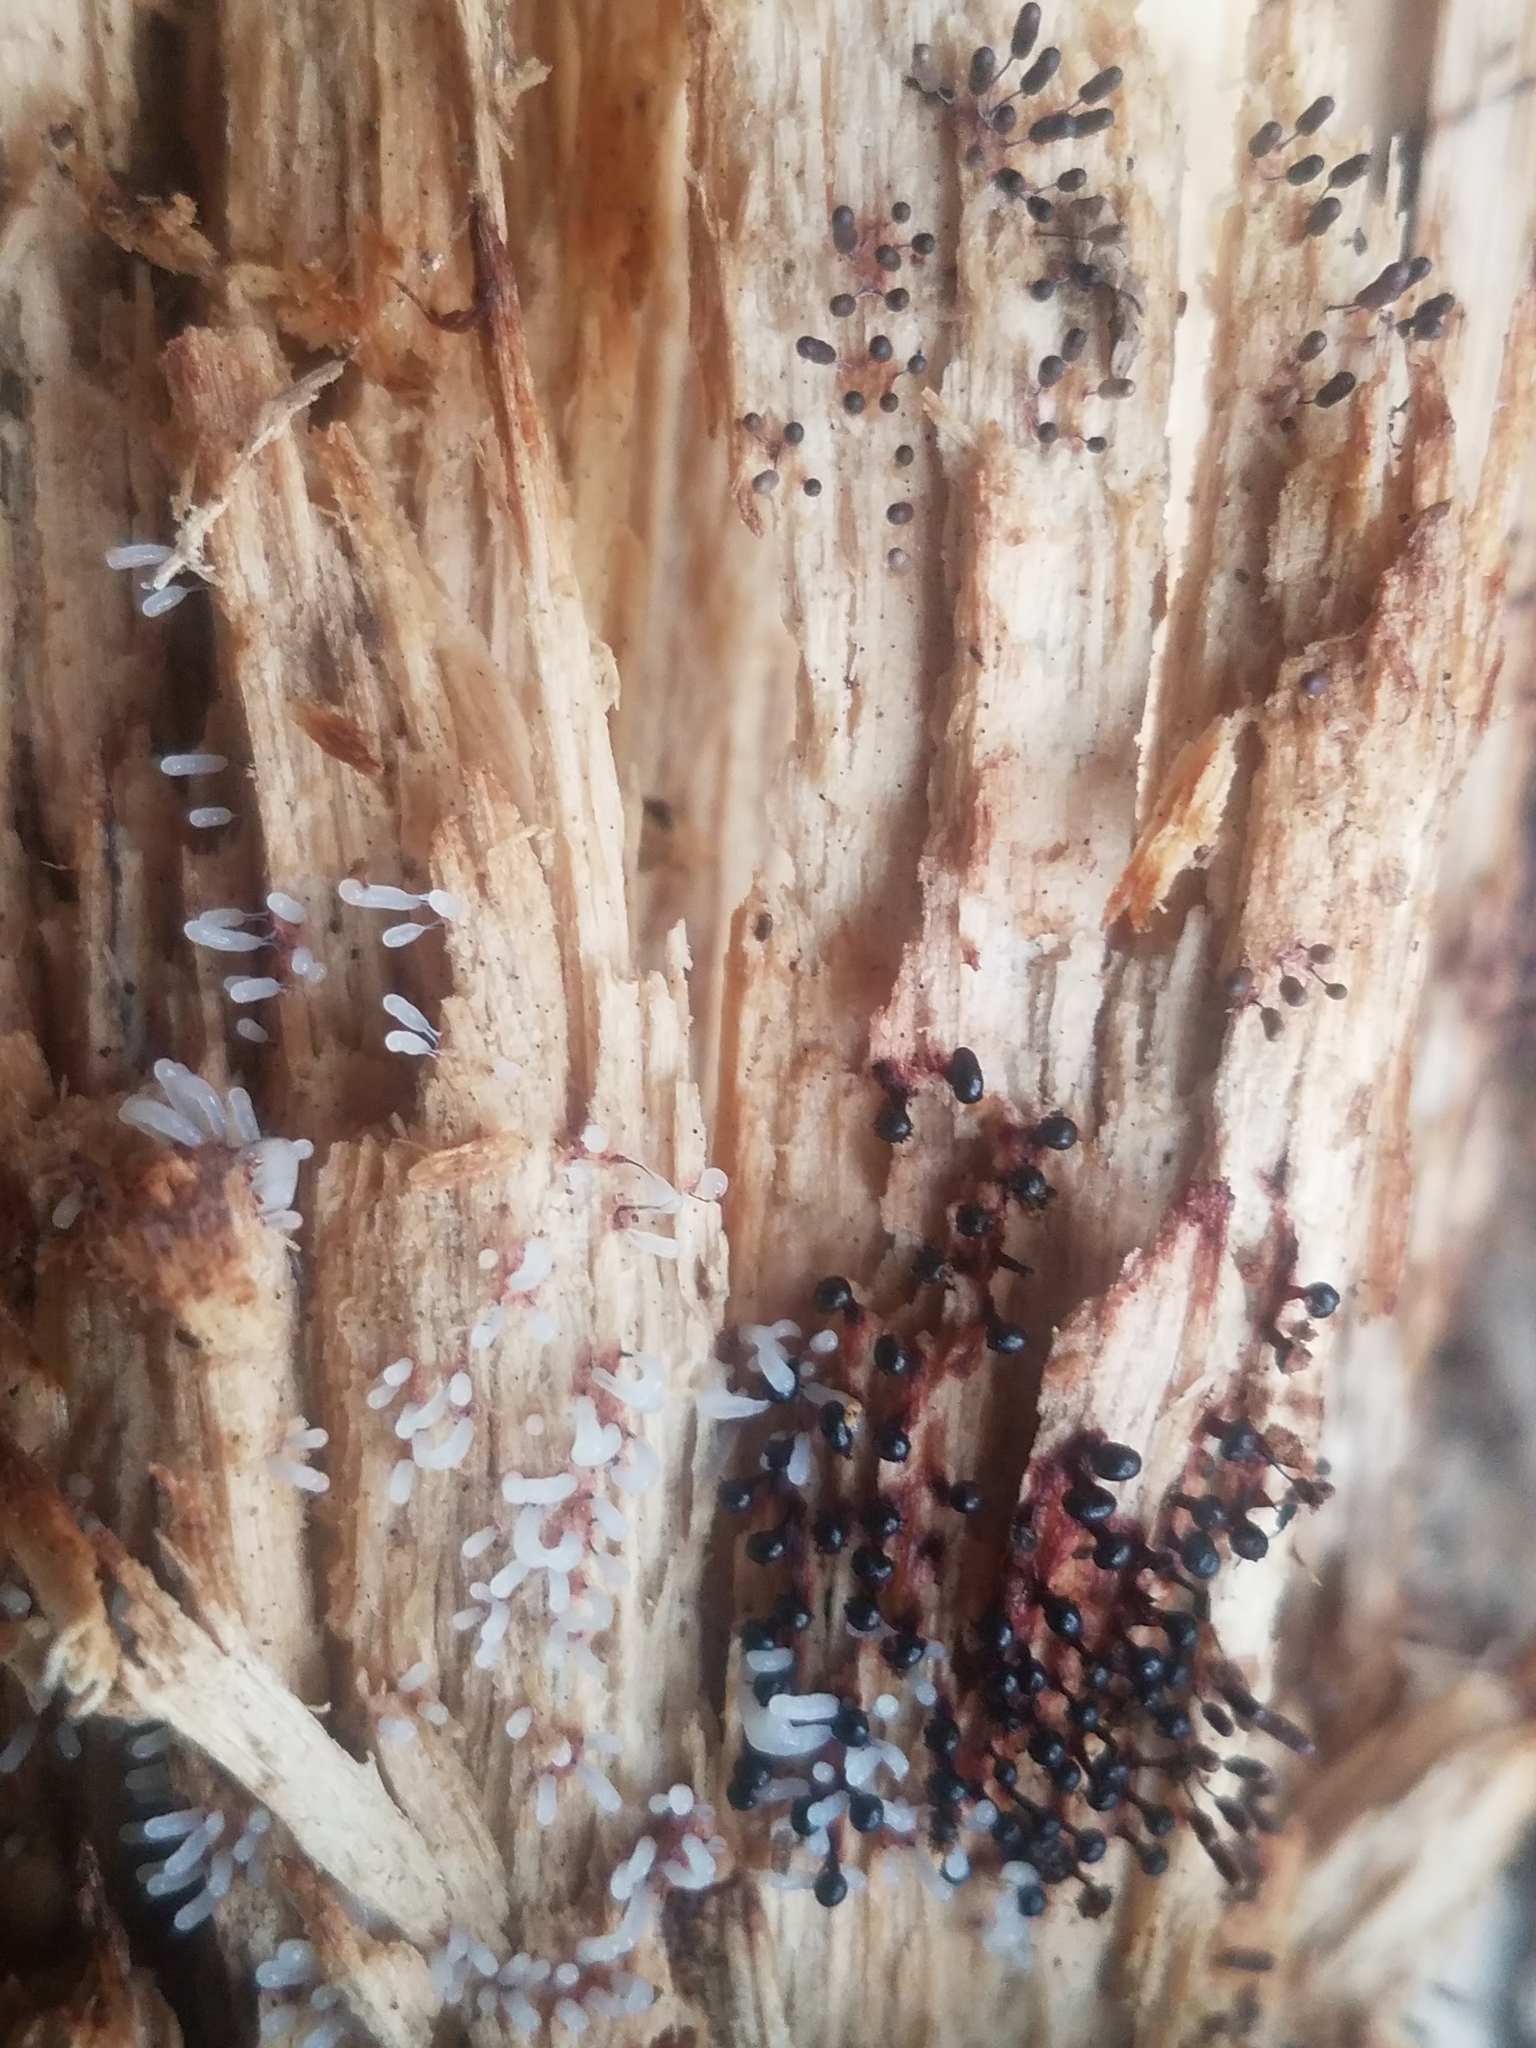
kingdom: Protozoa
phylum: Mycetozoa
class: Myxomycetes
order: Trichiales
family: Trichiaceae
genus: Metatrichia
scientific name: Metatrichia floriformis
